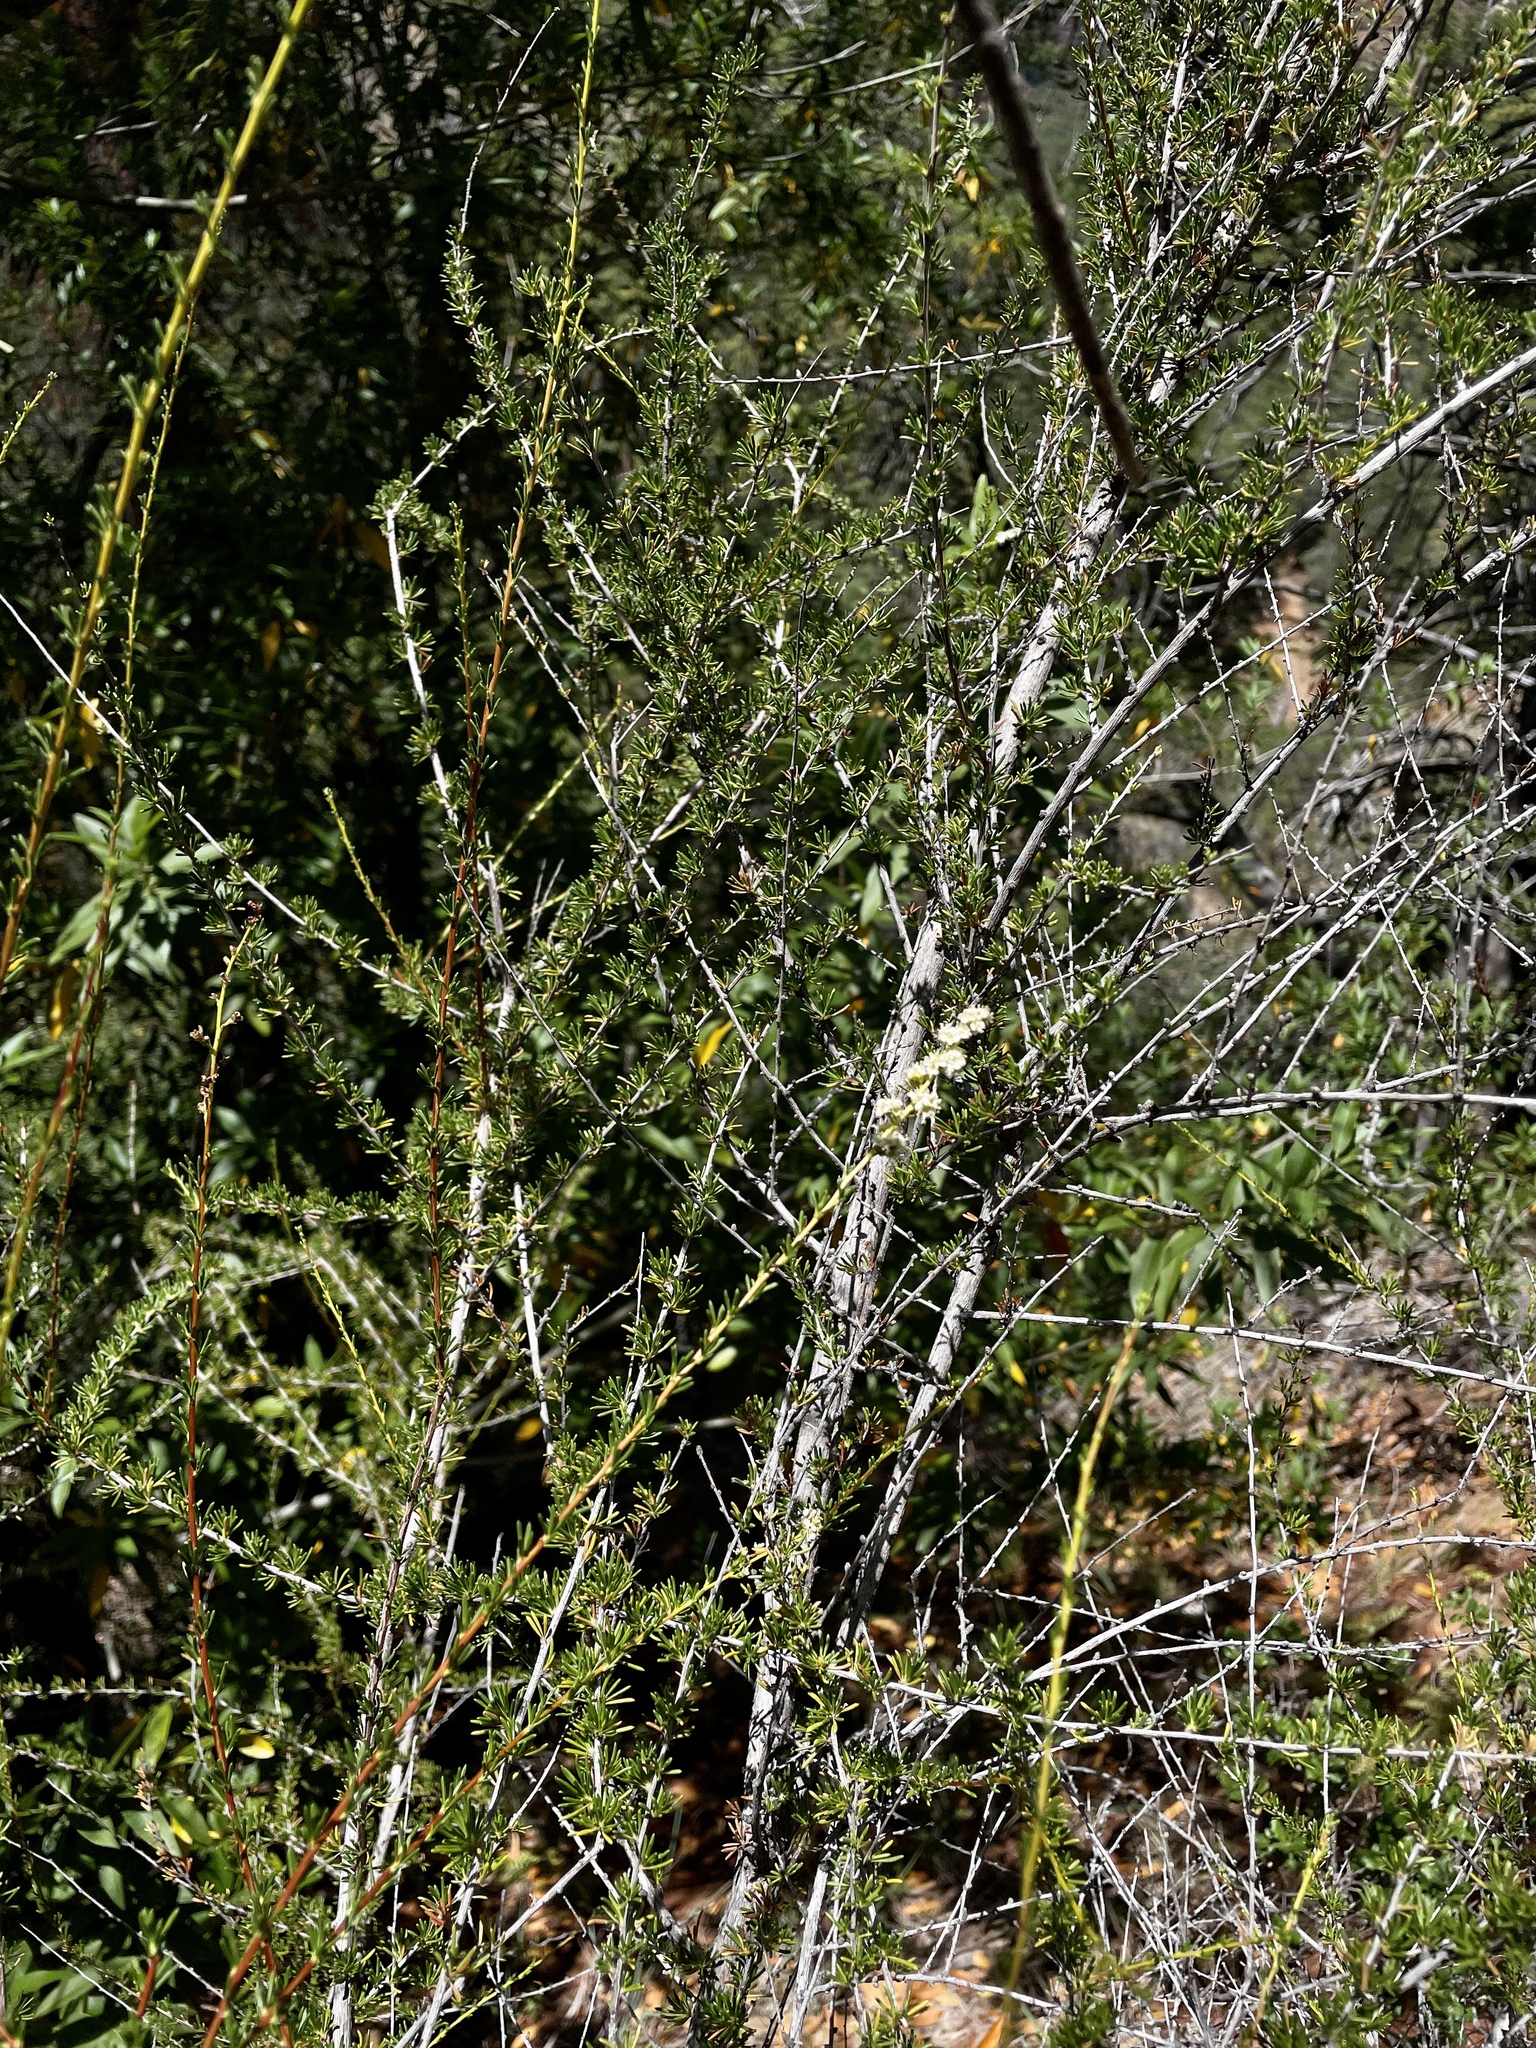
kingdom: Plantae
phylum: Tracheophyta
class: Magnoliopsida
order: Rosales
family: Rosaceae
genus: Adenostoma
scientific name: Adenostoma fasciculatum
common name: Chamise
